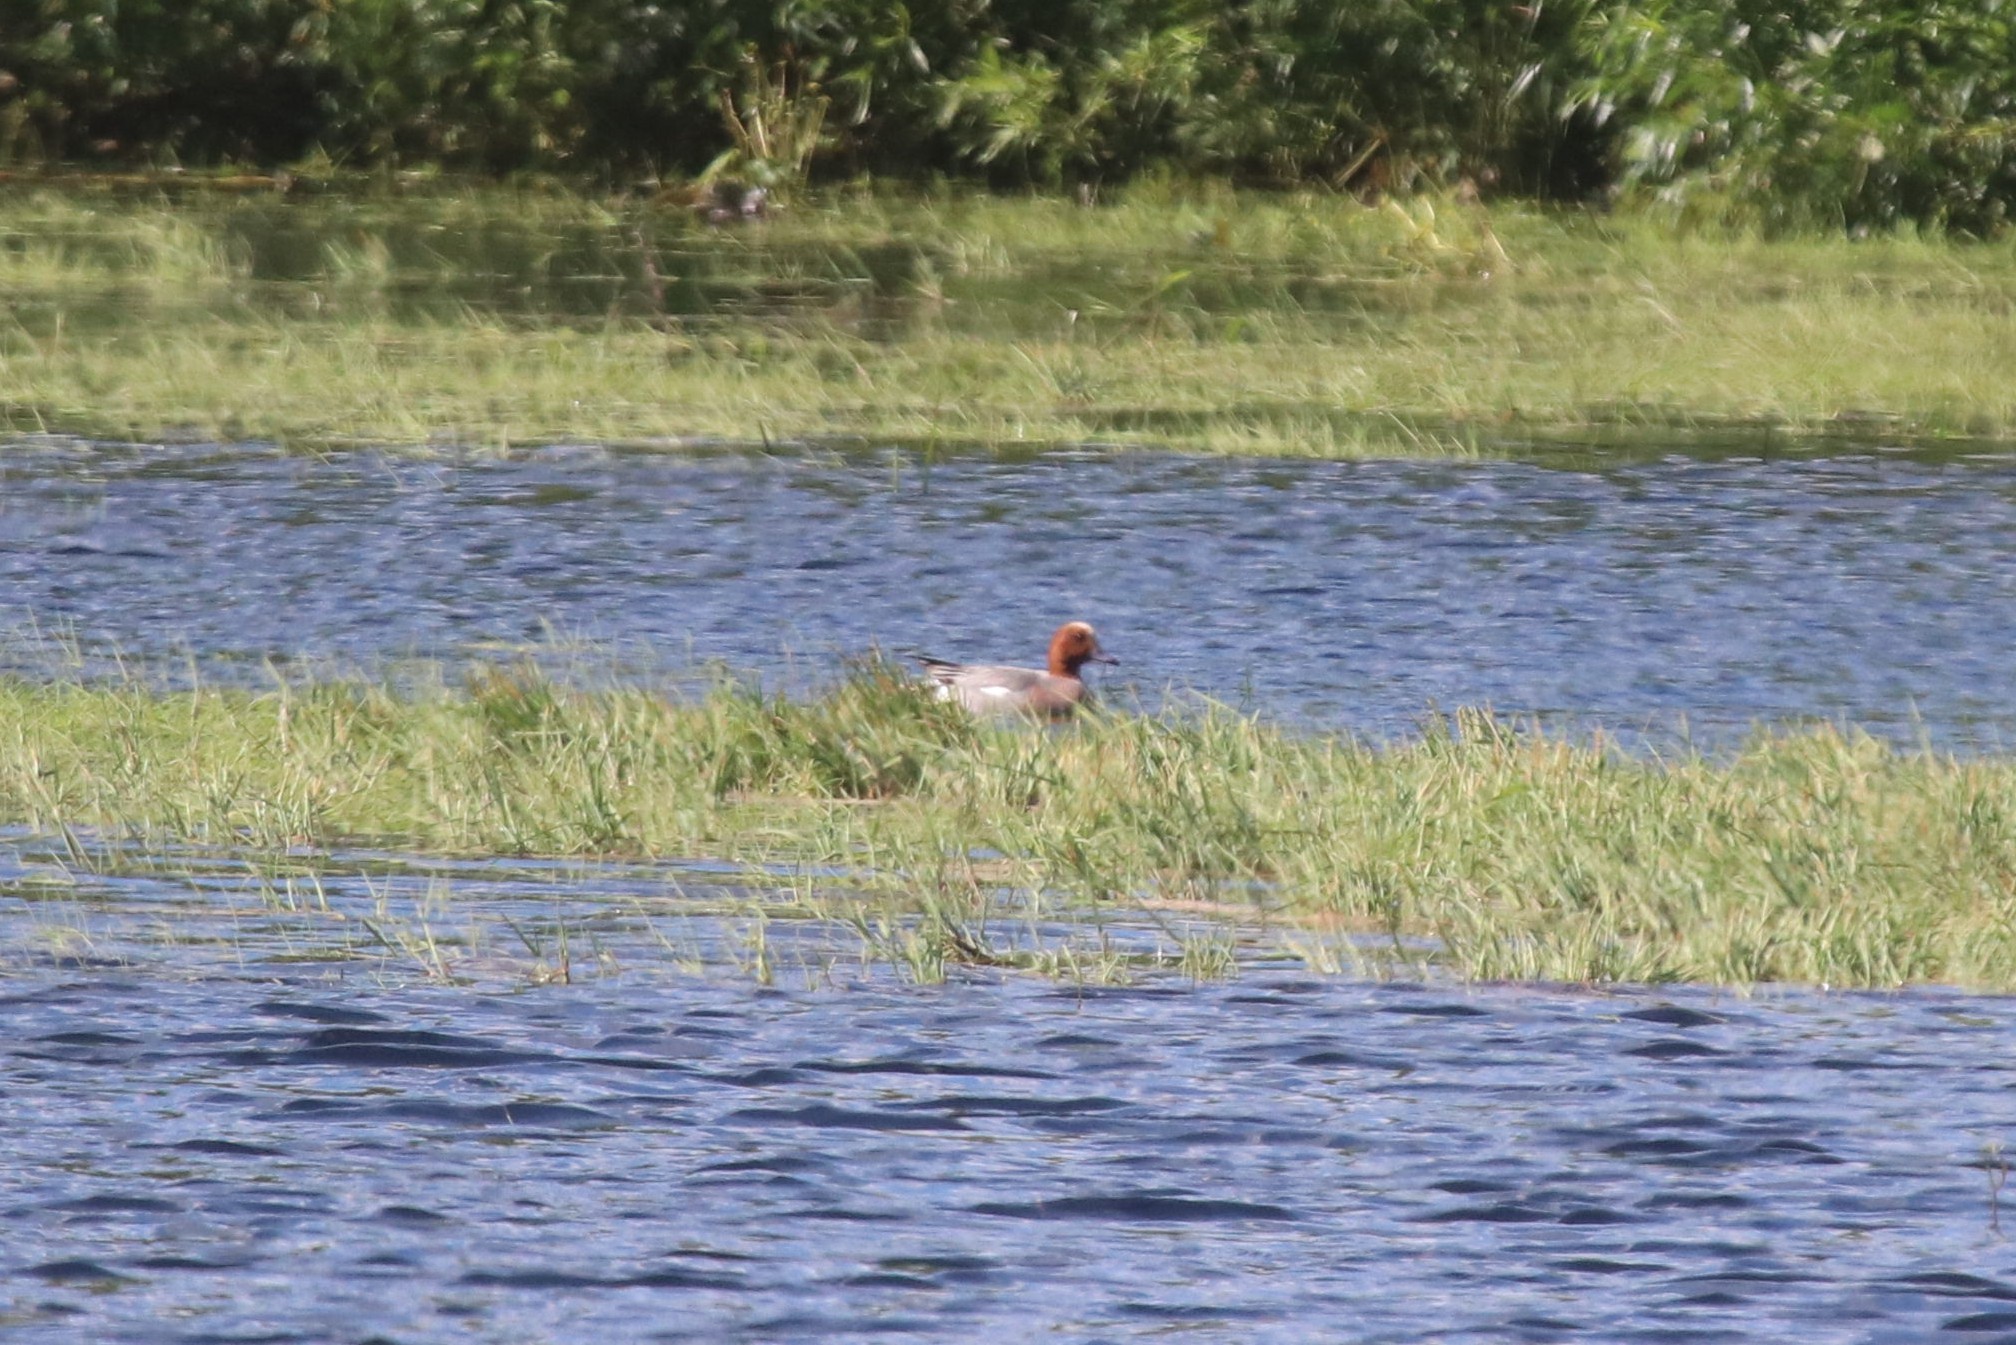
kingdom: Animalia
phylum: Chordata
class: Aves
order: Anseriformes
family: Anatidae
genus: Mareca
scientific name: Mareca penelope
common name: Eurasian wigeon
